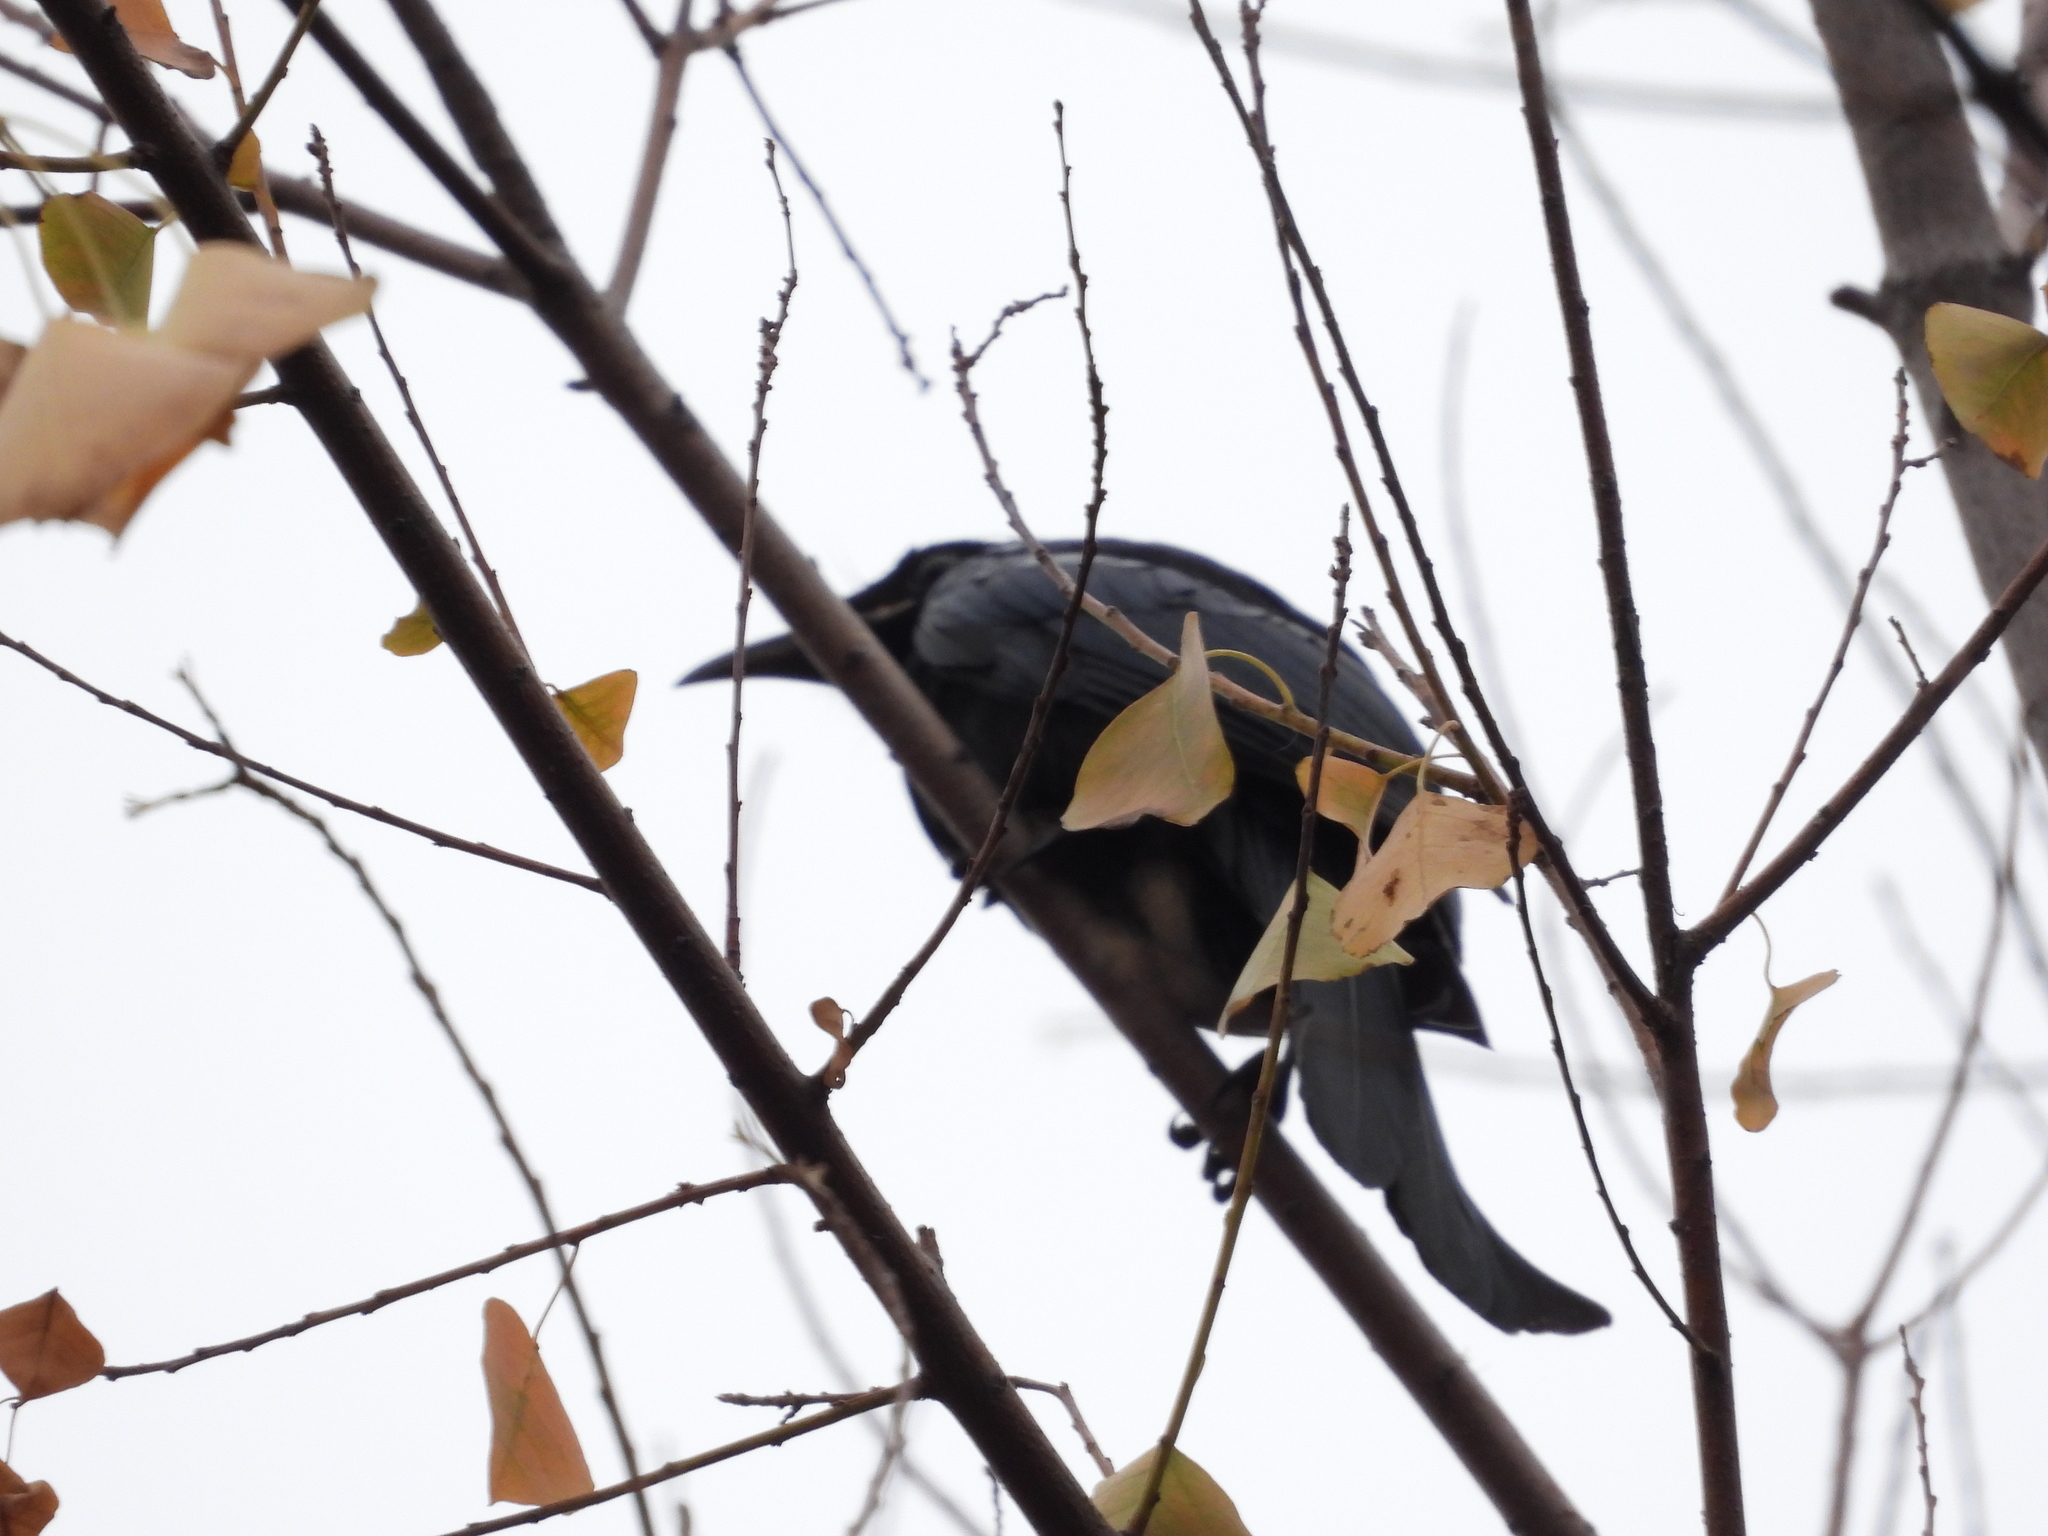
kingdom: Animalia
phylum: Chordata
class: Aves
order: Passeriformes
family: Dicruridae
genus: Dicrurus
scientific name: Dicrurus hottentottus
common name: Hair-crested drongo
